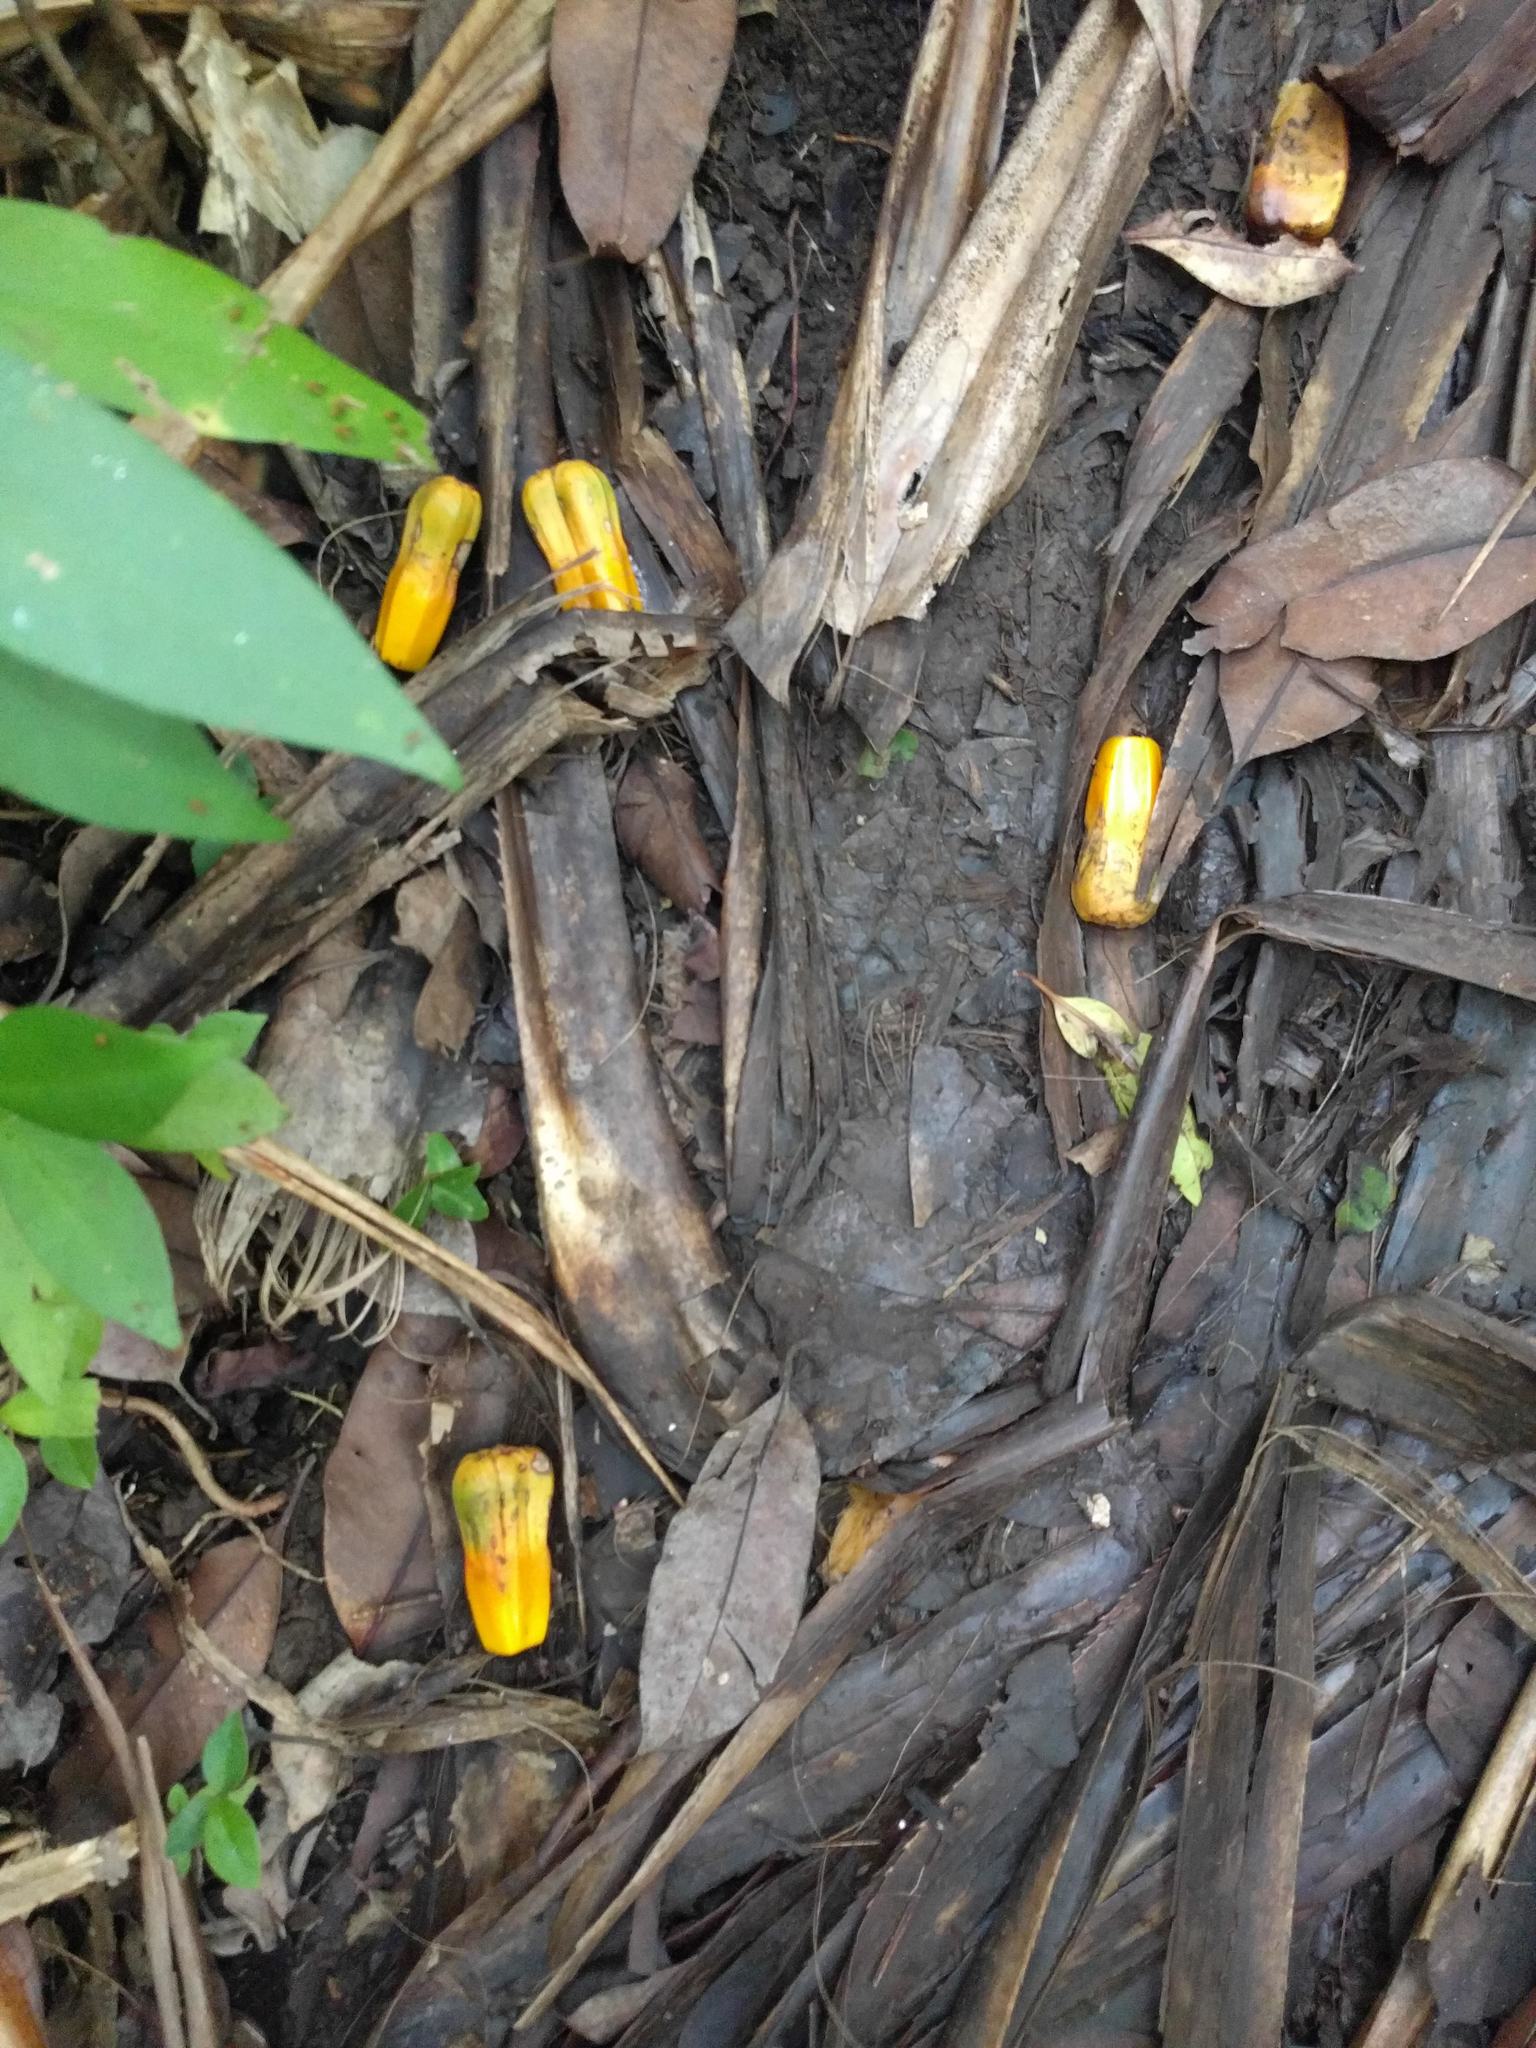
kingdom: Plantae
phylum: Tracheophyta
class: Liliopsida
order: Pandanales
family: Pandanaceae
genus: Pandanus
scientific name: Pandanus tectorius
